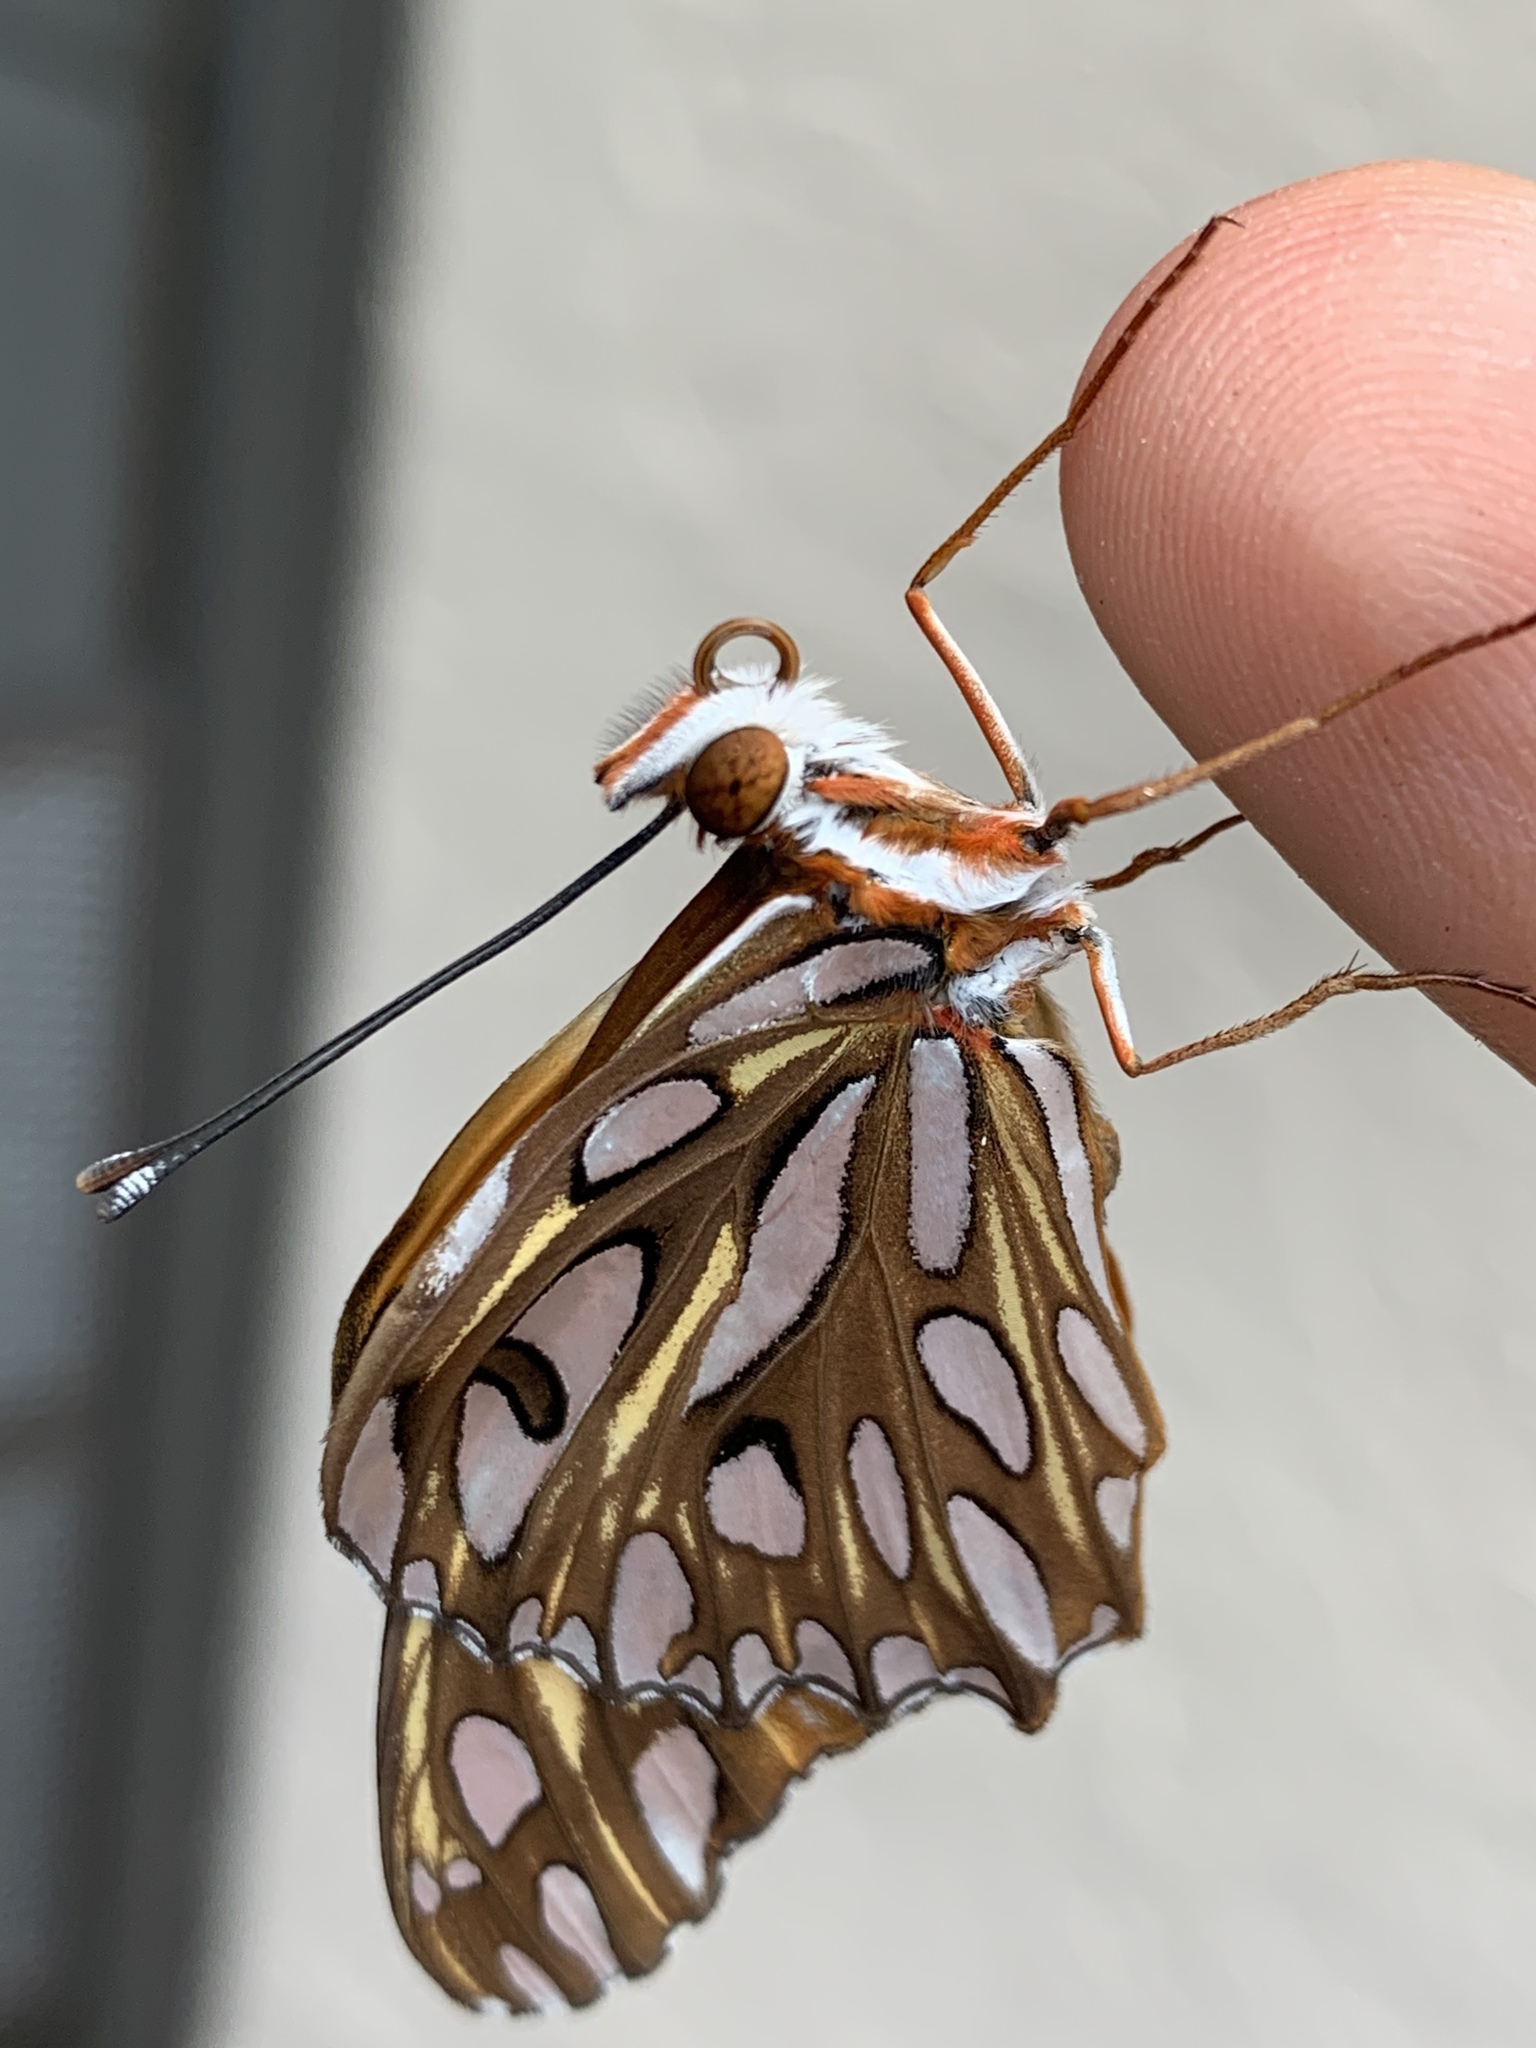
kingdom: Animalia
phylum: Arthropoda
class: Insecta
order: Lepidoptera
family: Nymphalidae
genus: Dione
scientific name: Dione vanillae
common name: Gulf fritillary
